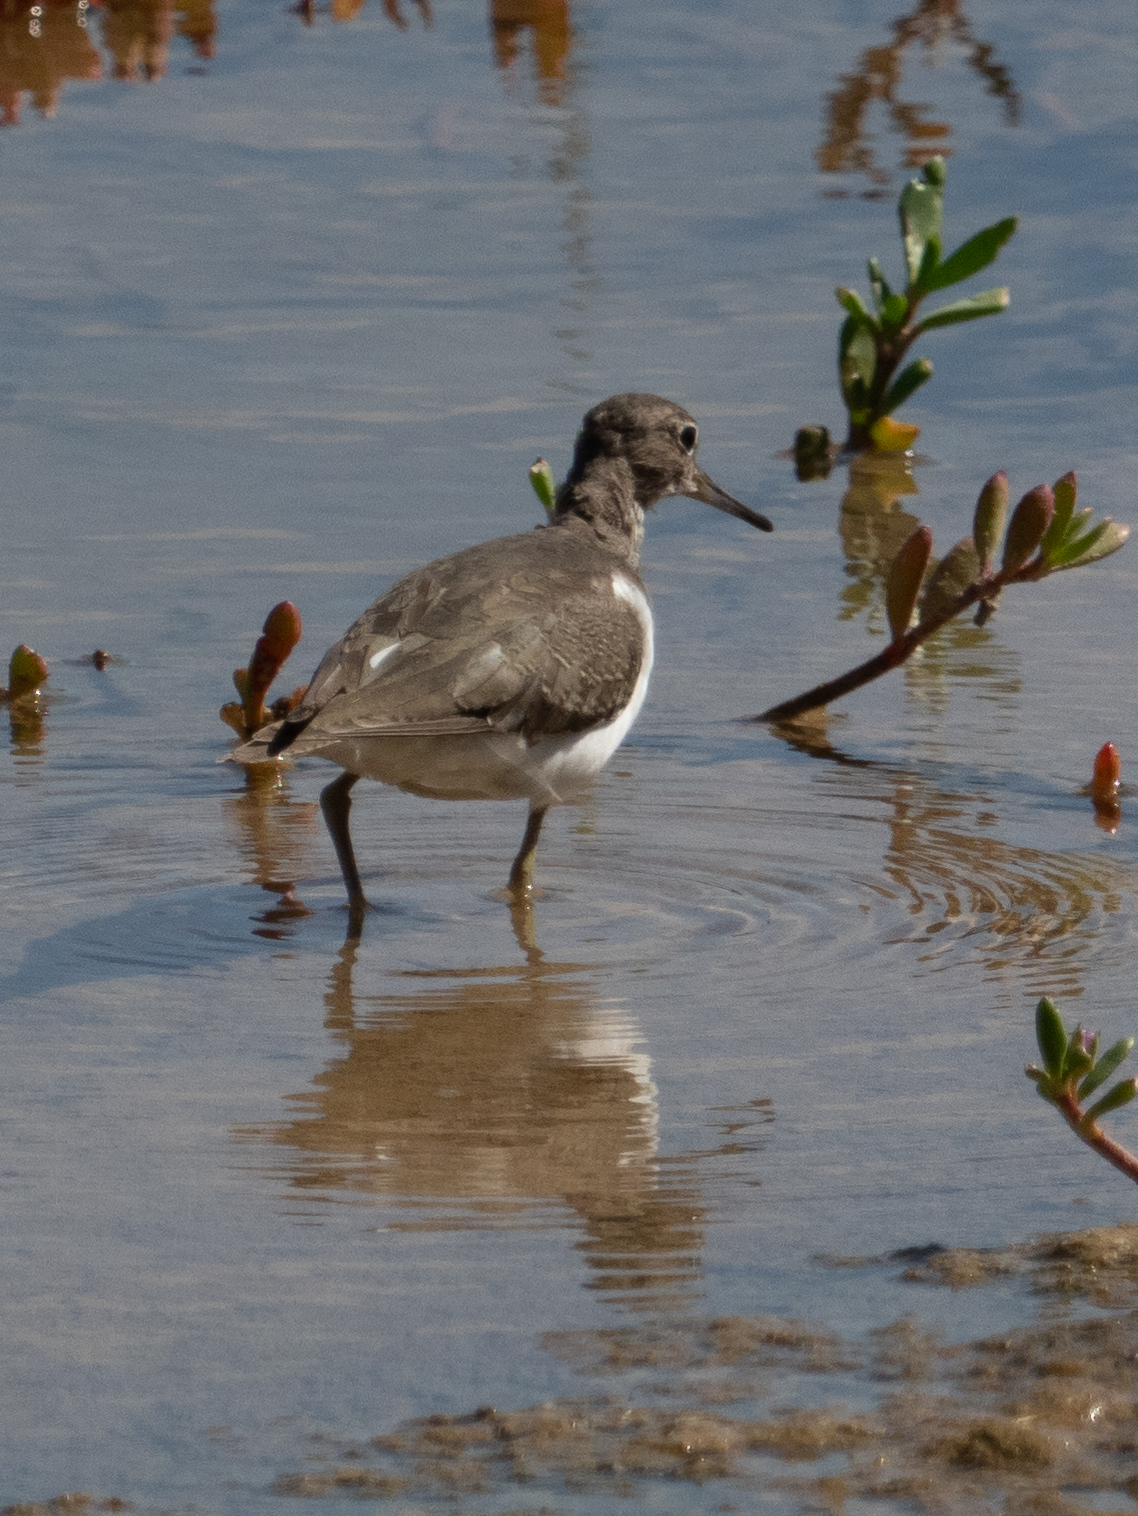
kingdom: Animalia
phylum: Chordata
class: Aves
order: Charadriiformes
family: Scolopacidae
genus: Actitis
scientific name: Actitis hypoleucos
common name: Common sandpiper
